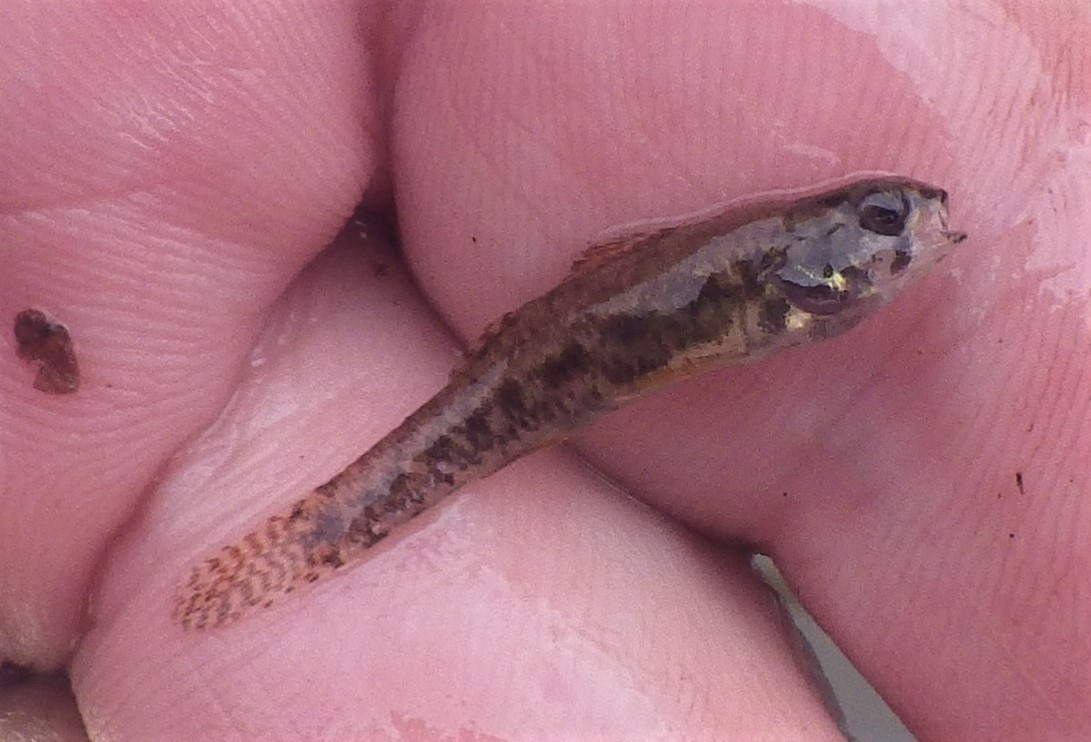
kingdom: Animalia
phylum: Chordata
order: Perciformes
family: Percidae
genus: Etheostoma
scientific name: Etheostoma microperca
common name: Least darter
